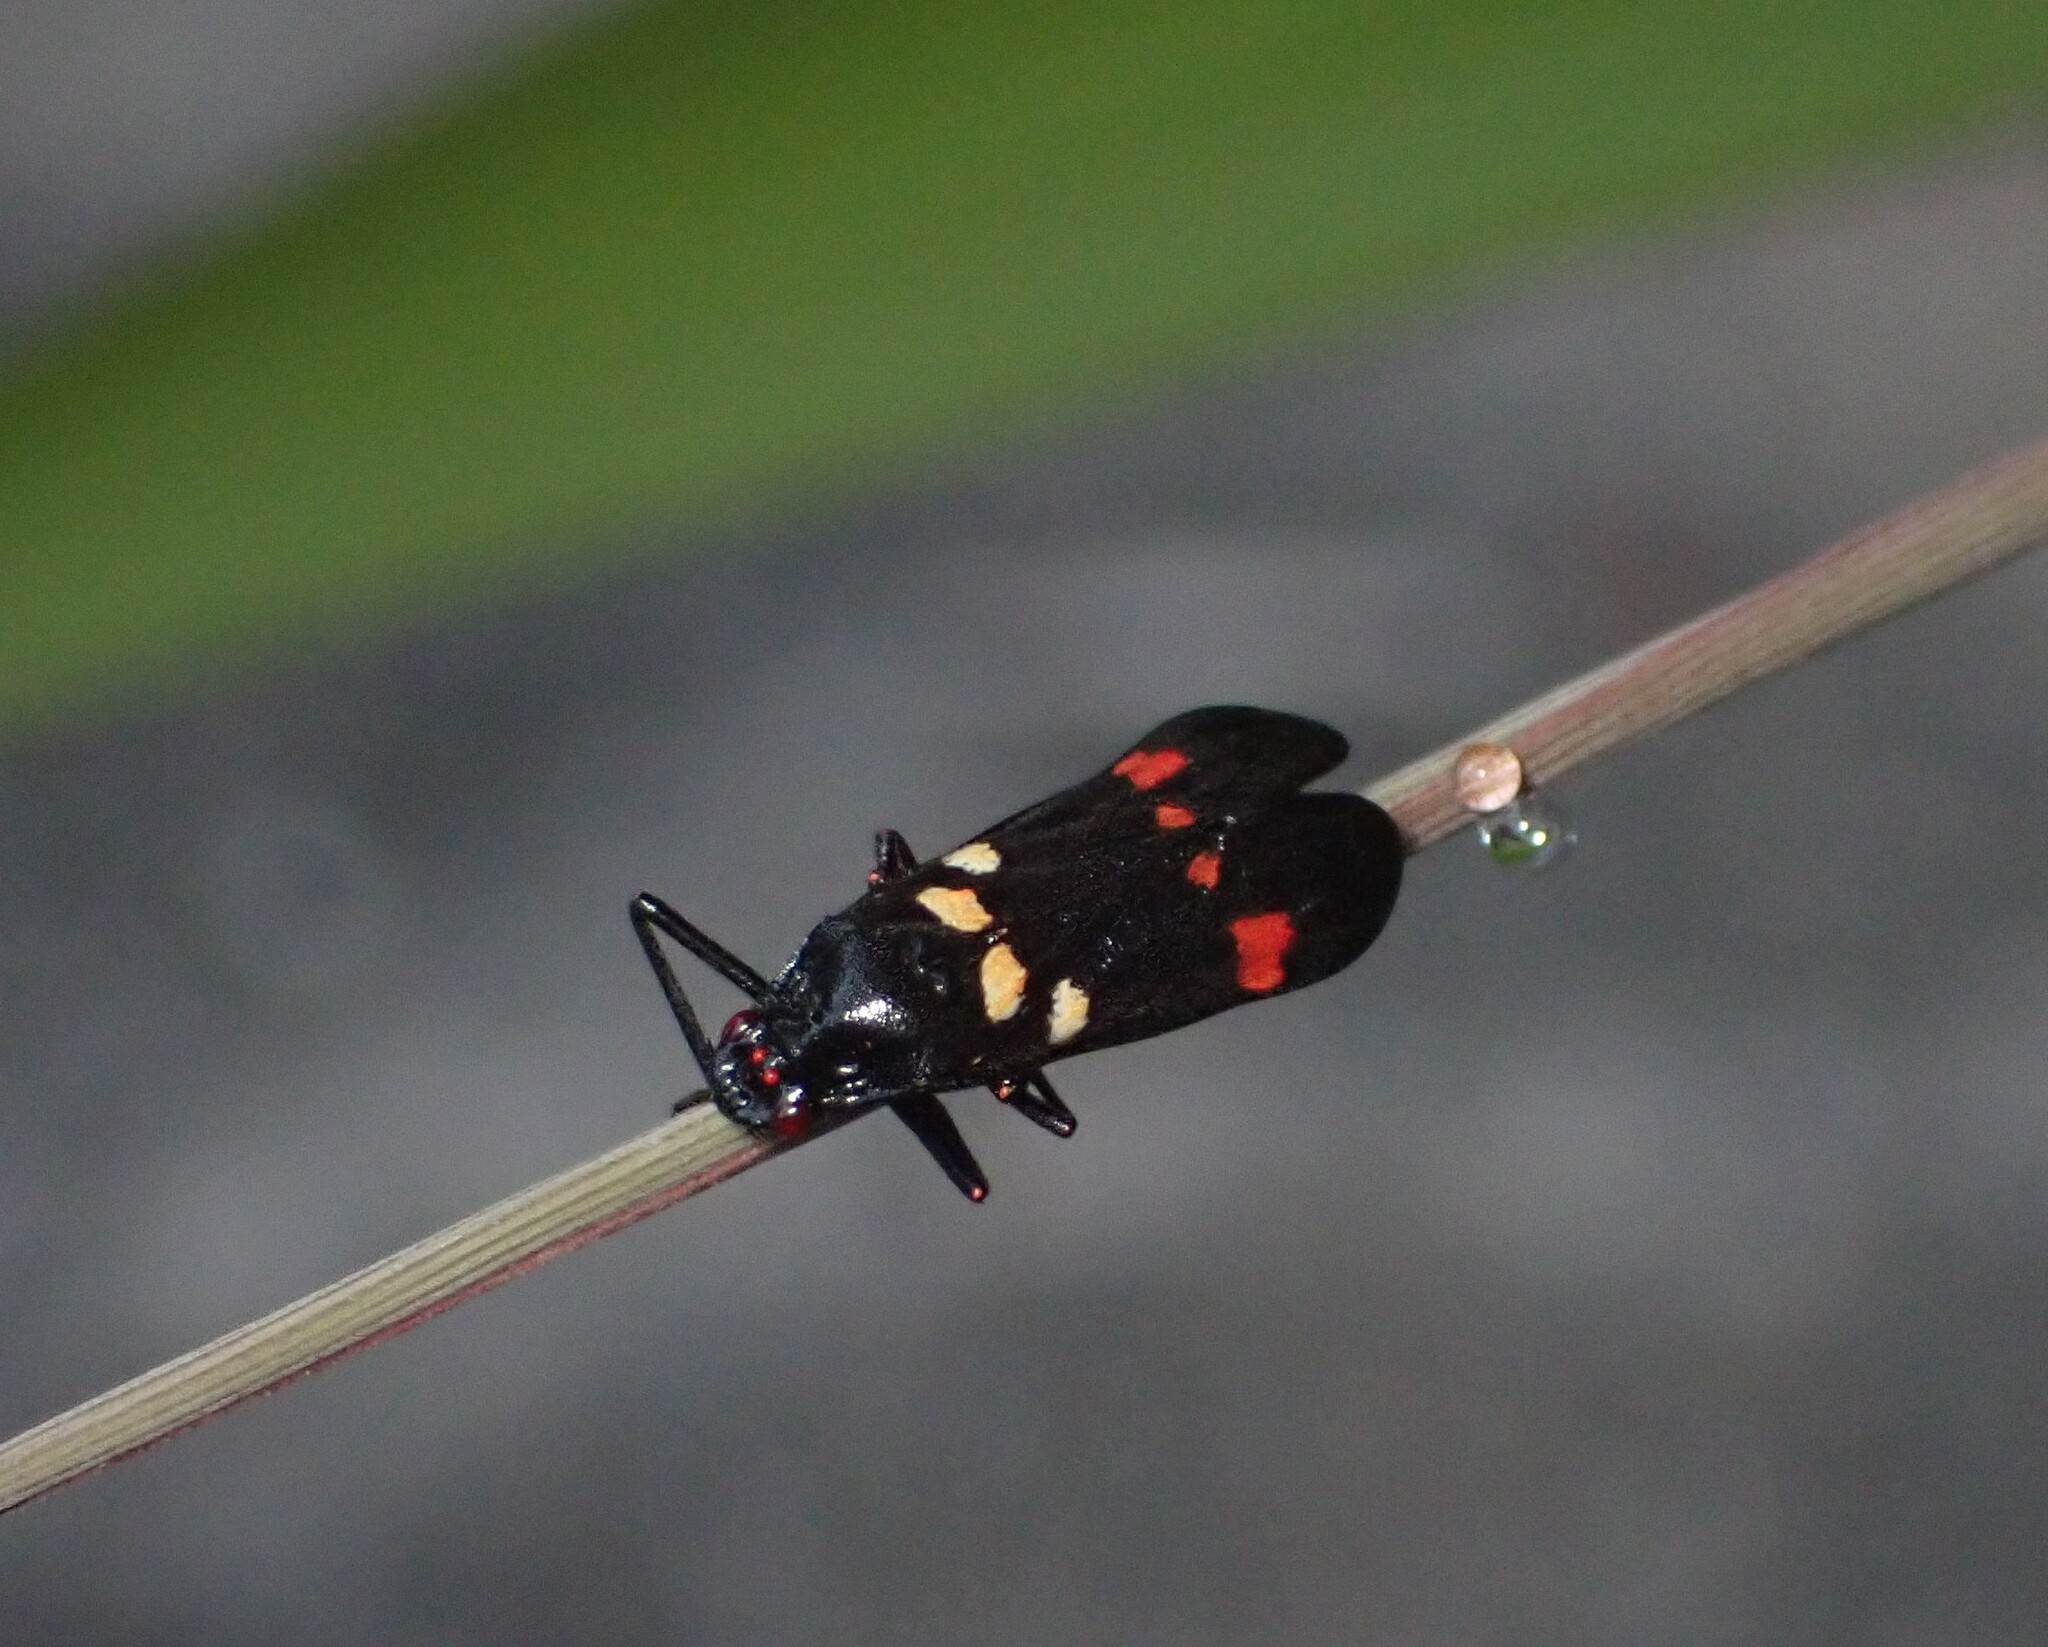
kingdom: Animalia
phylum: Arthropoda
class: Insecta
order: Hemiptera
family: Cercopidae
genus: Callitettix
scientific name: Callitettix versicolor
